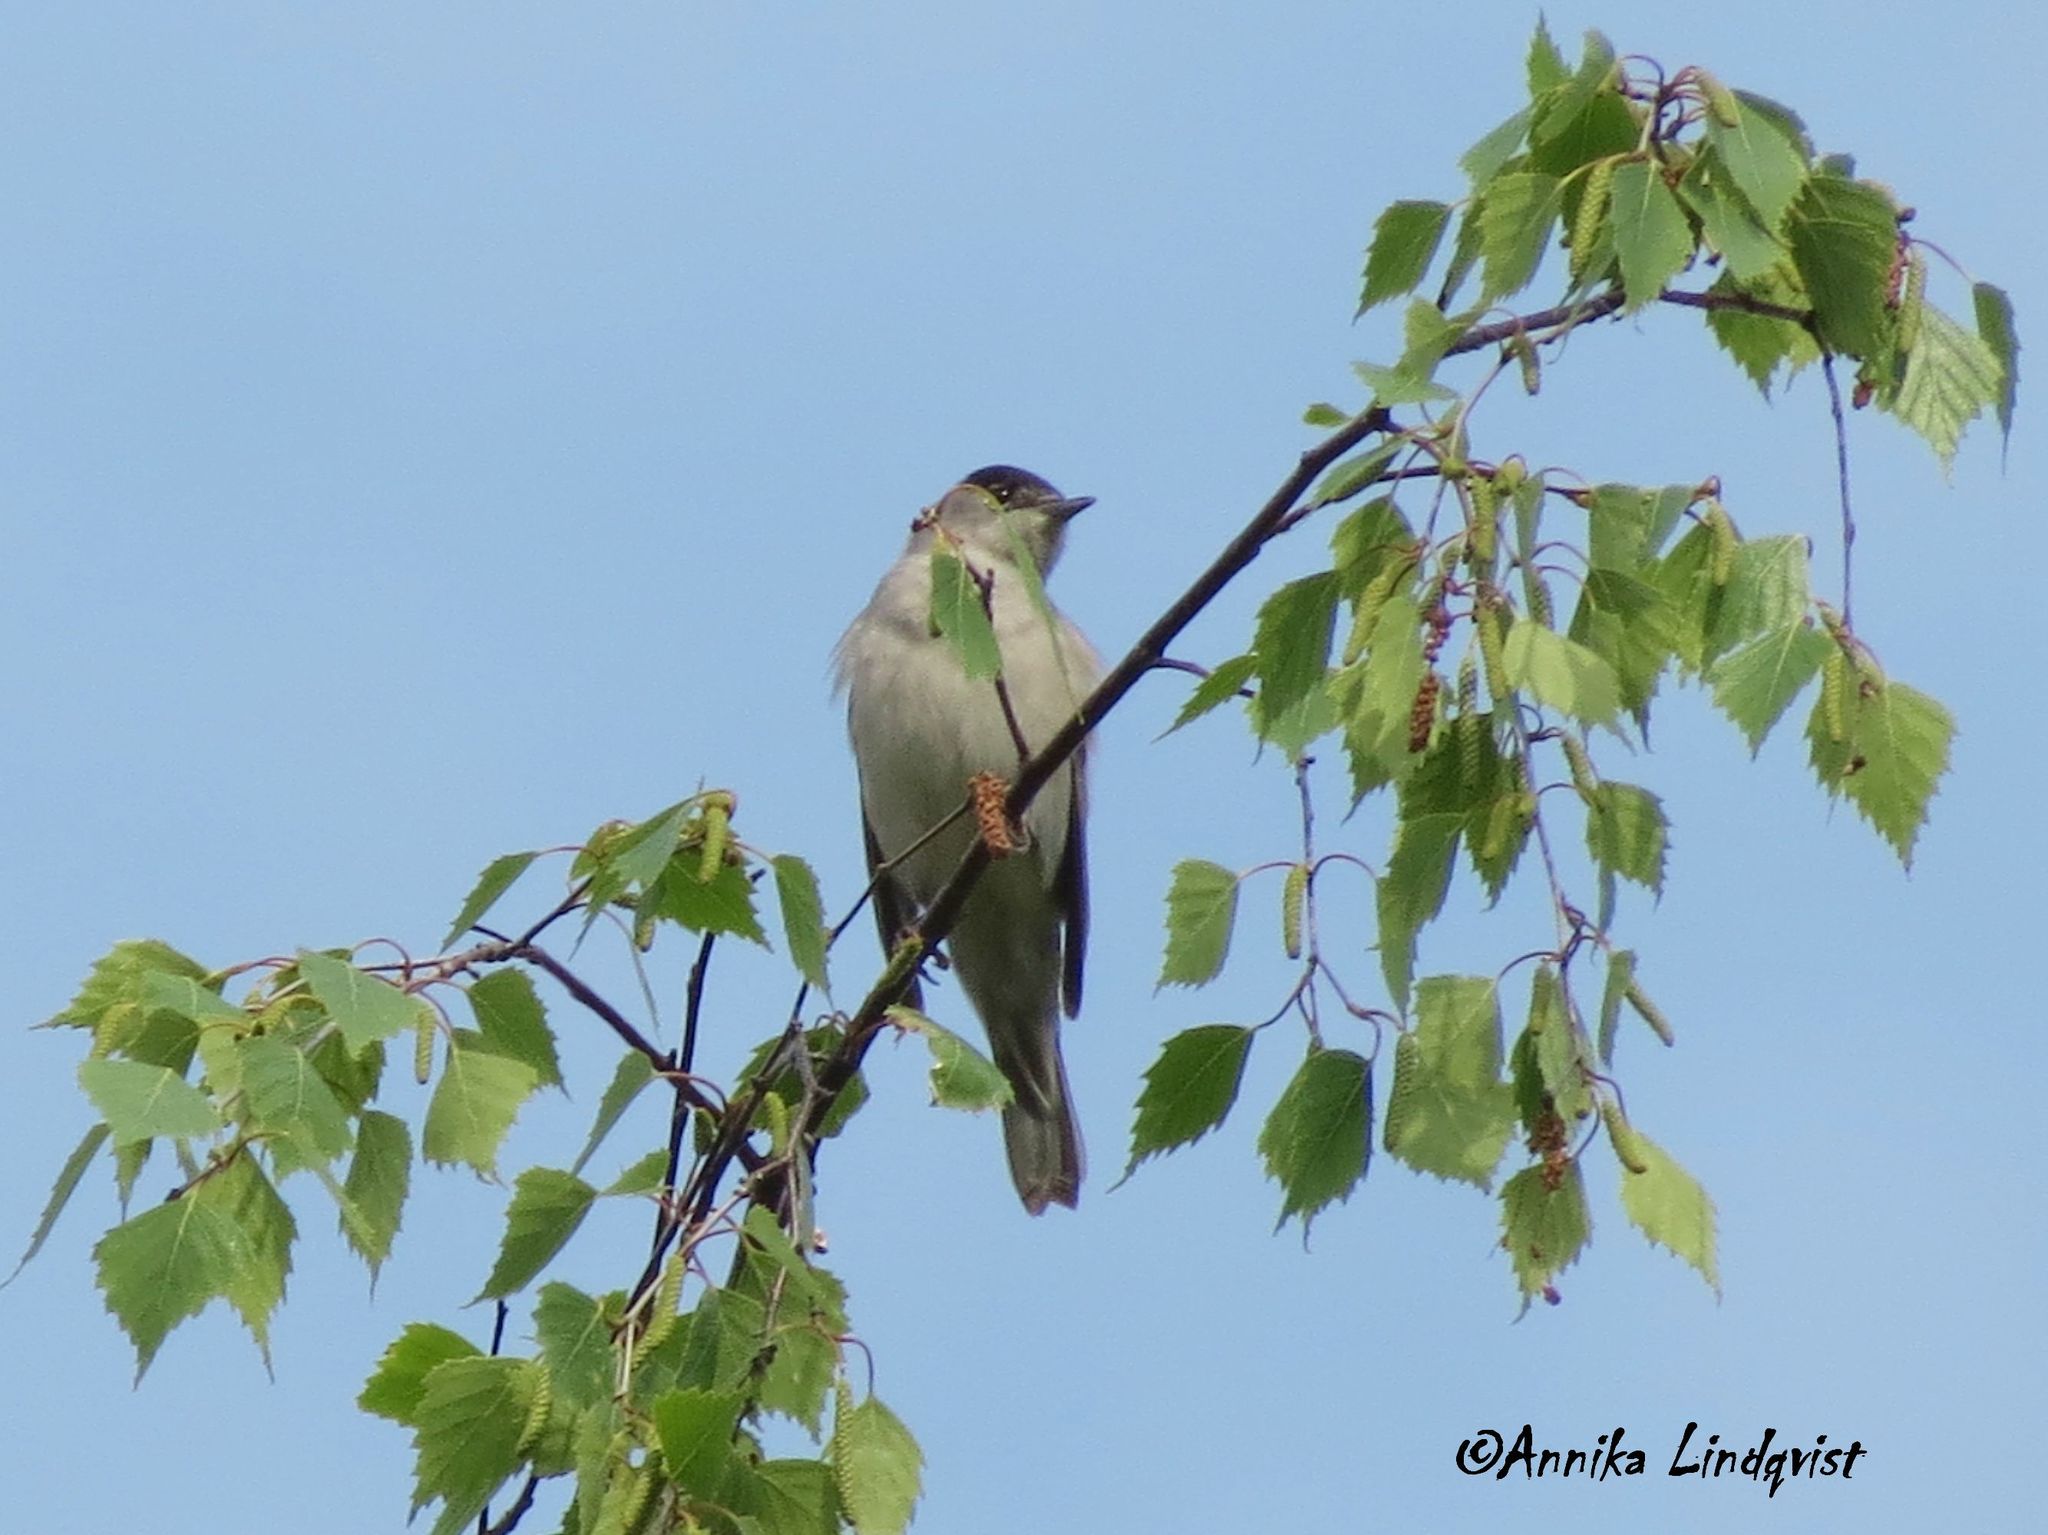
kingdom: Animalia
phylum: Chordata
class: Aves
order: Passeriformes
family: Sylviidae
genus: Sylvia
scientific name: Sylvia atricapilla
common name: Eurasian blackcap
